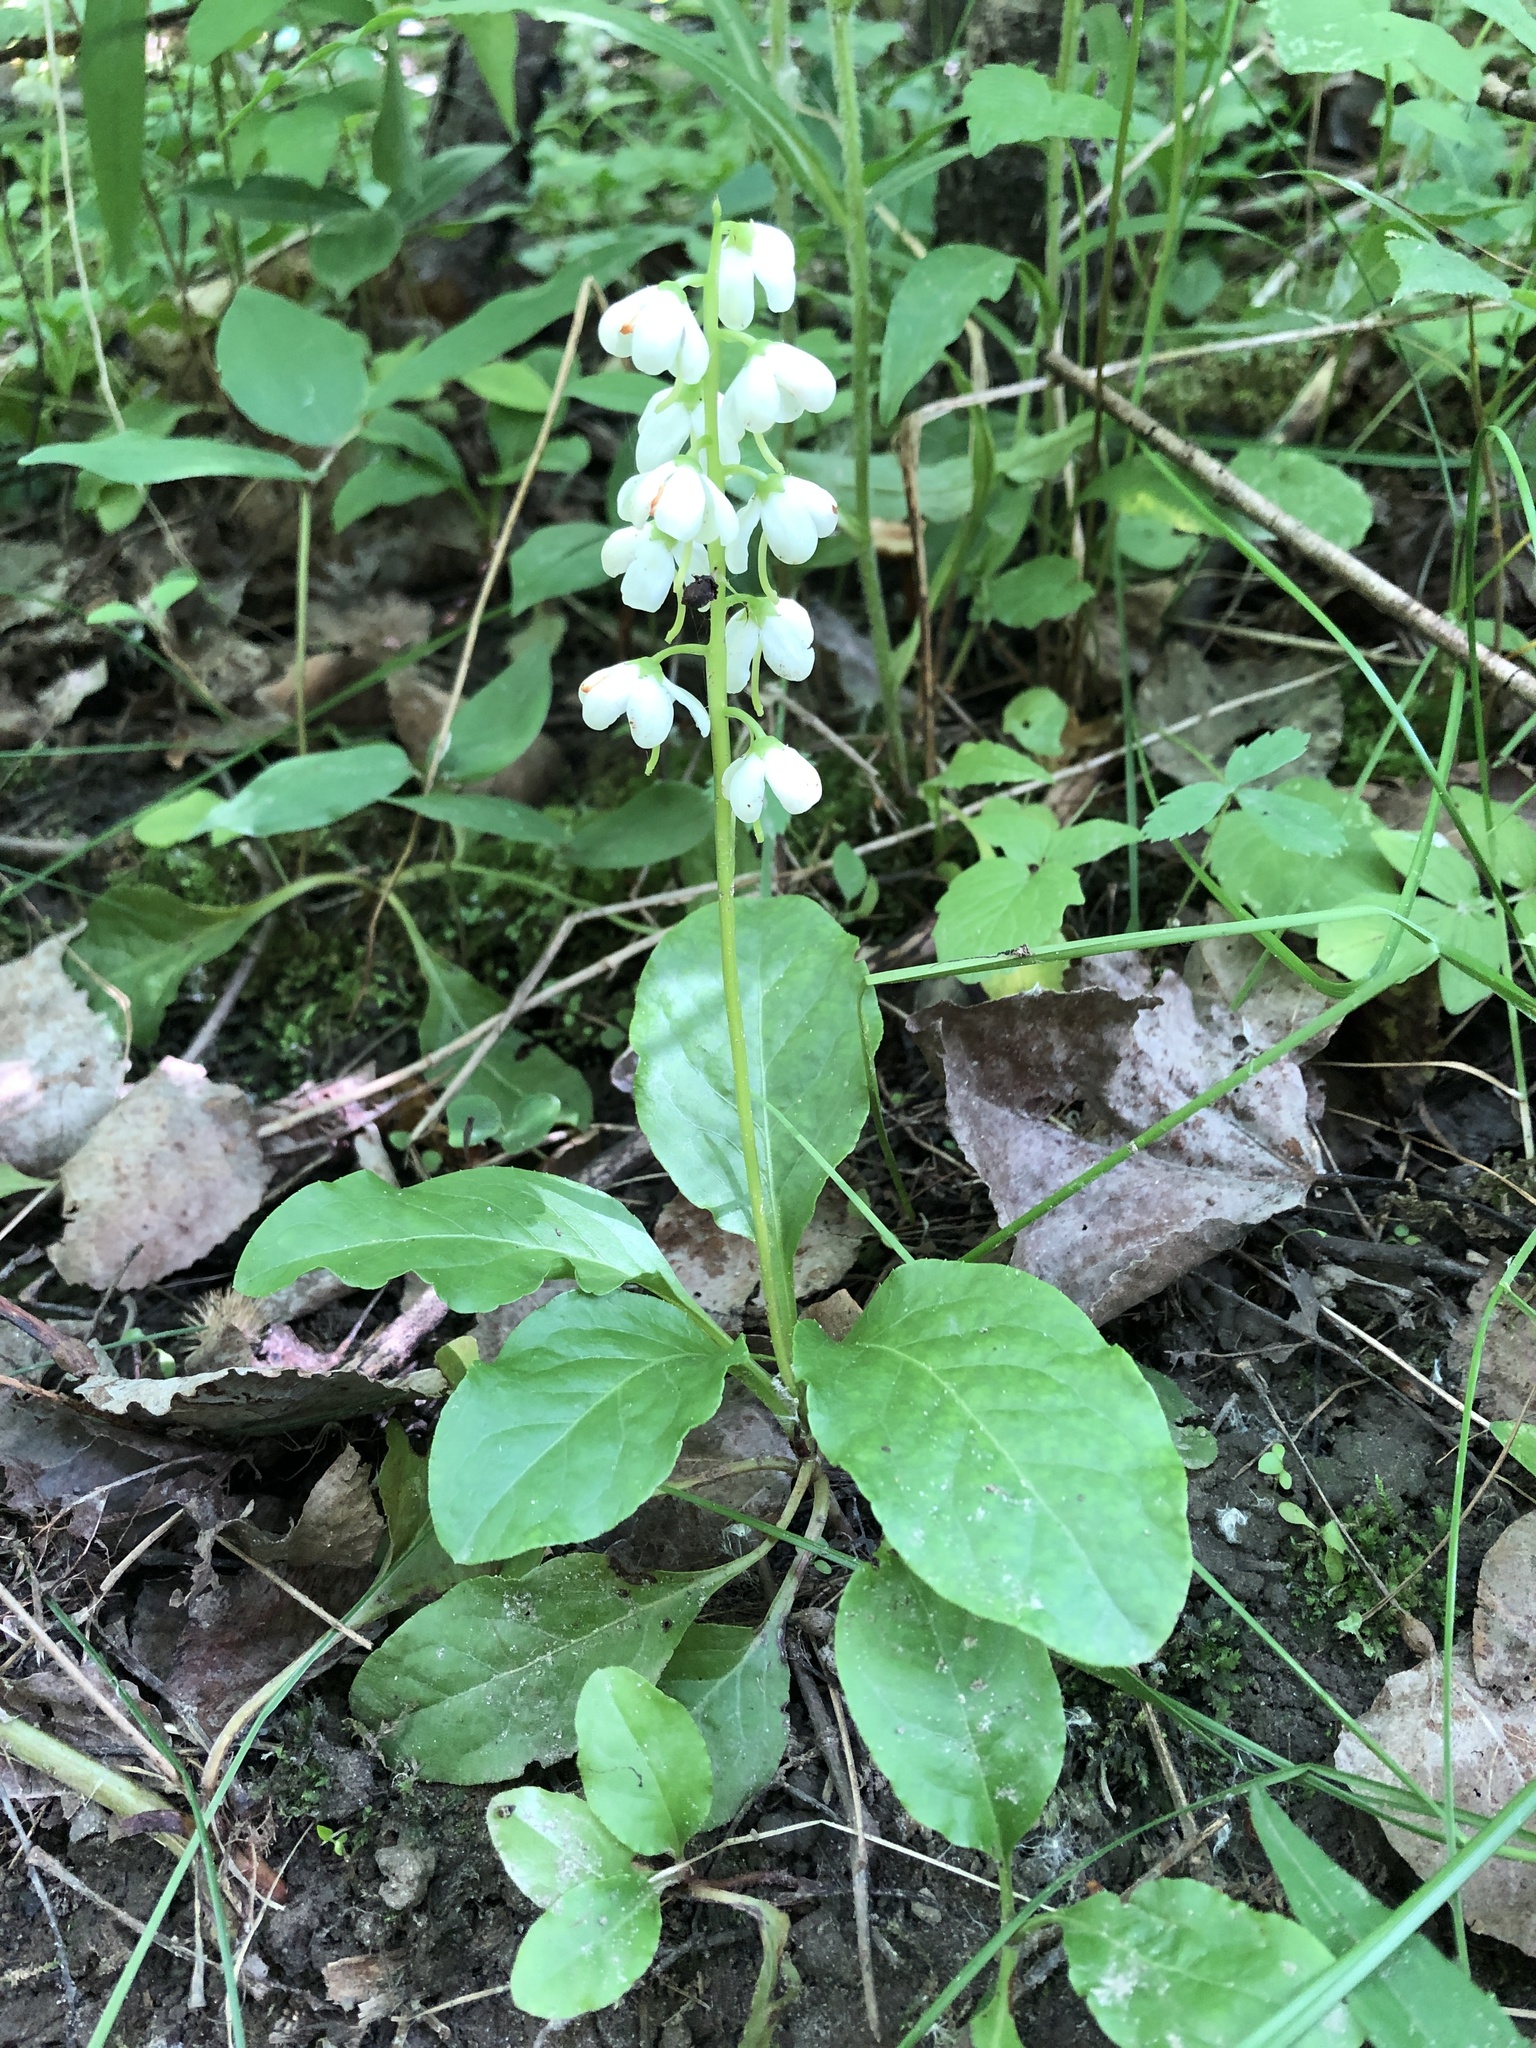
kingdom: Plantae
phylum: Tracheophyta
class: Magnoliopsida
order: Ericales
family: Ericaceae
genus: Pyrola
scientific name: Pyrola elliptica
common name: Shinleaf
